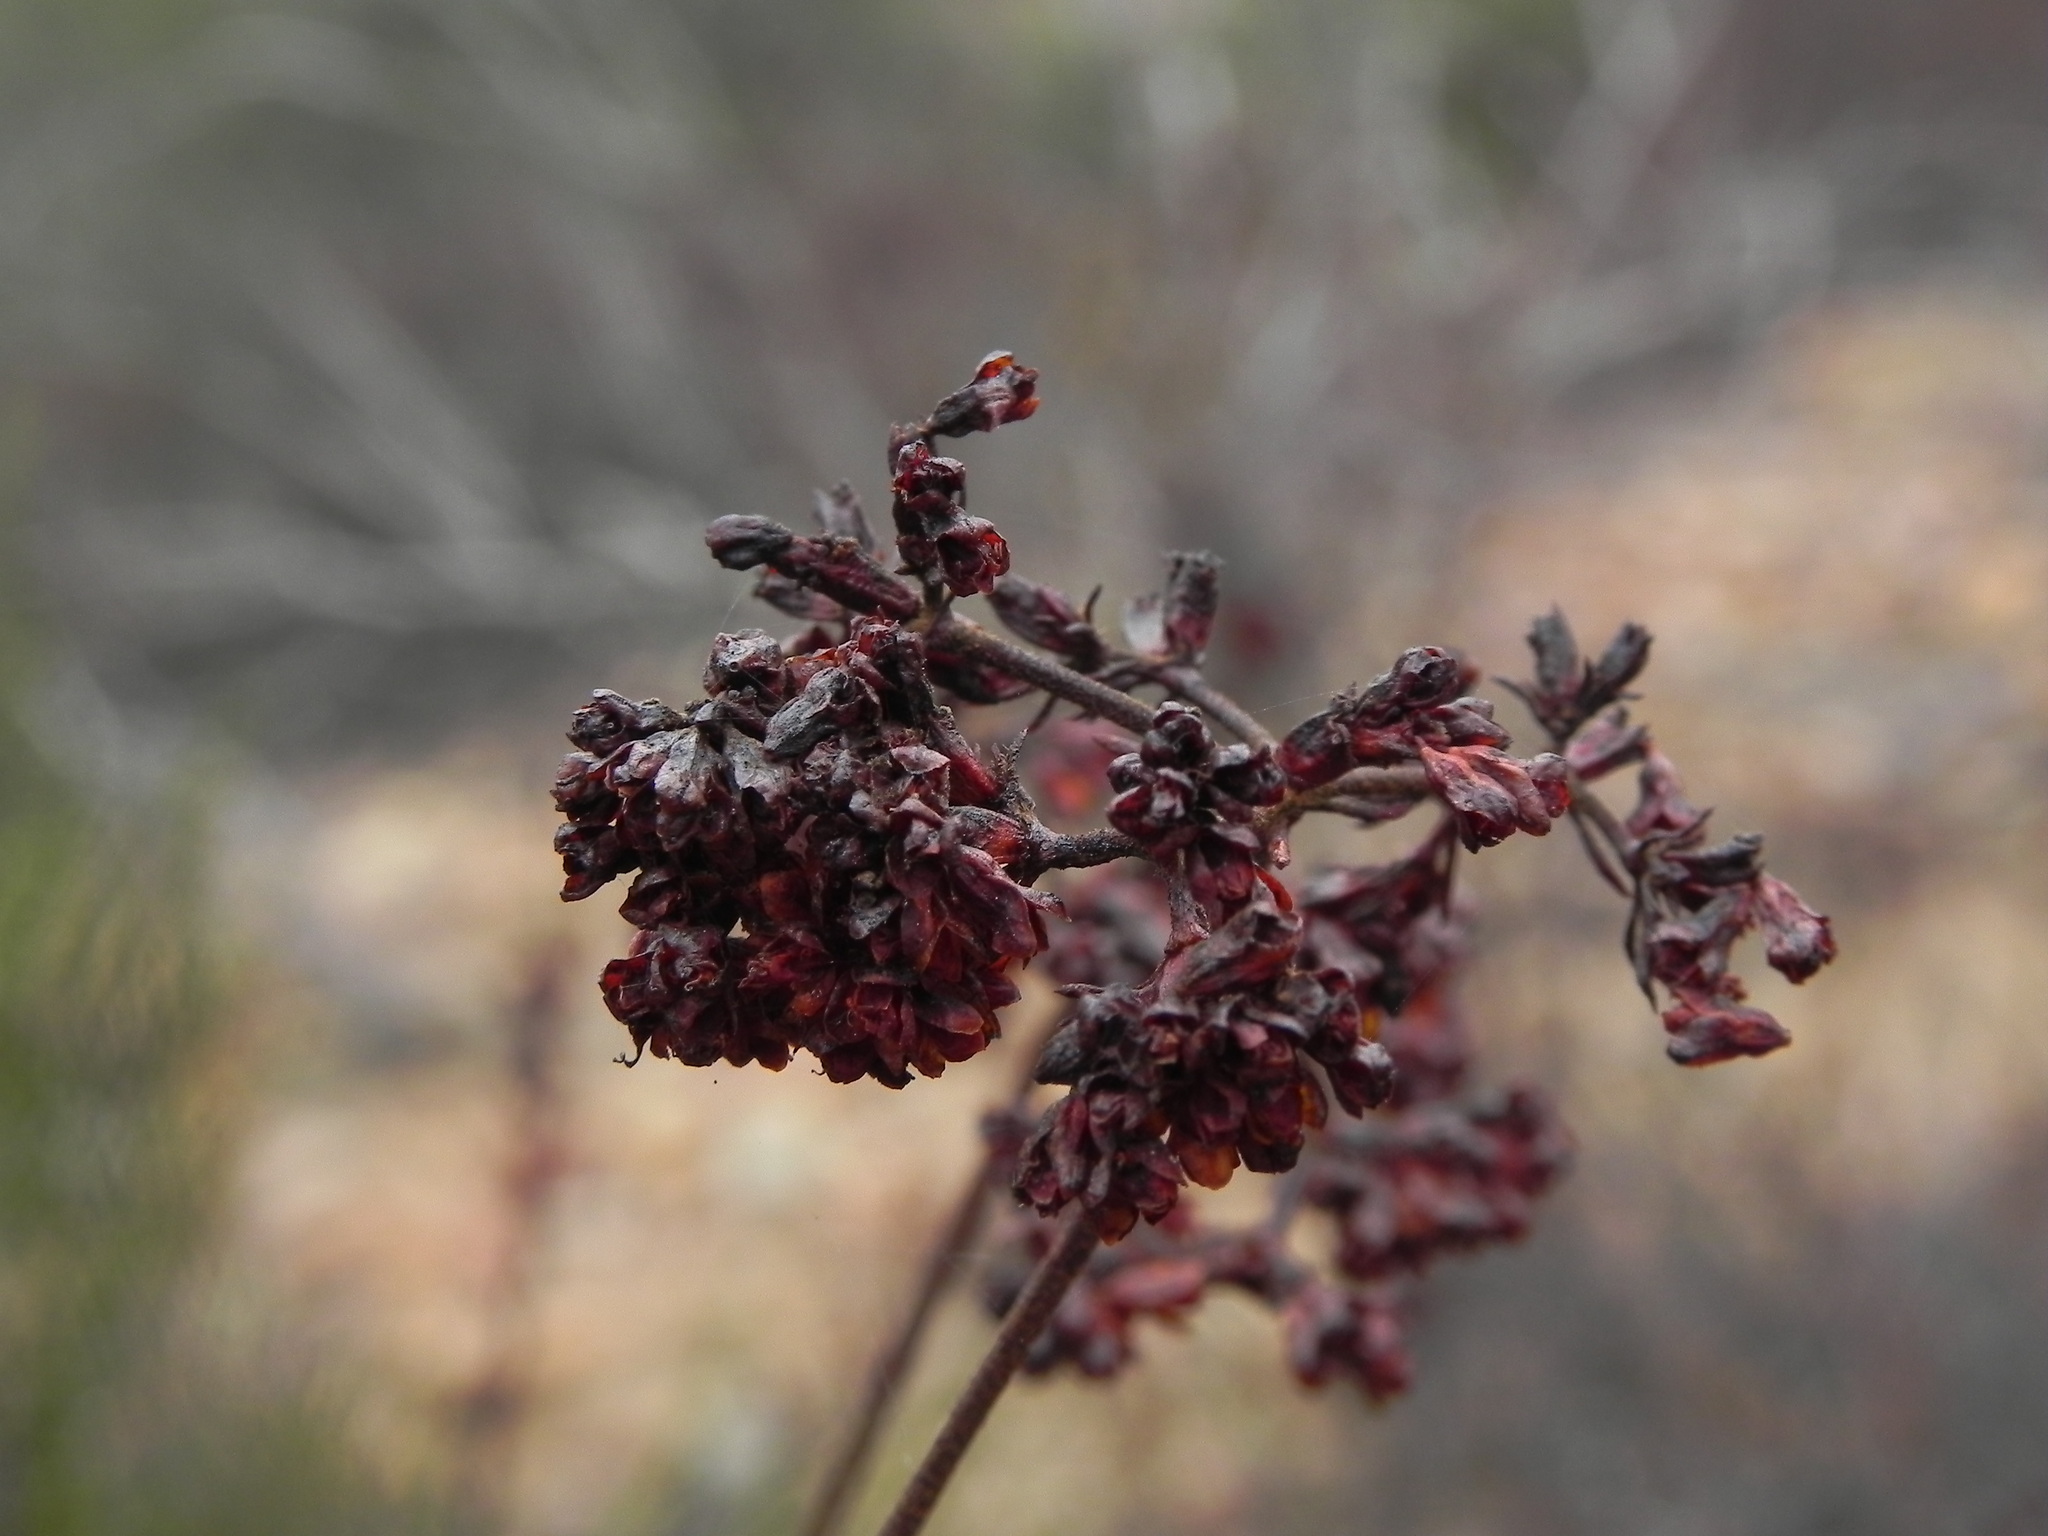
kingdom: Plantae
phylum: Tracheophyta
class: Magnoliopsida
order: Caryophyllales
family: Polygonaceae
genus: Eriogonum
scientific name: Eriogonum fasciculatum
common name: California wild buckwheat
